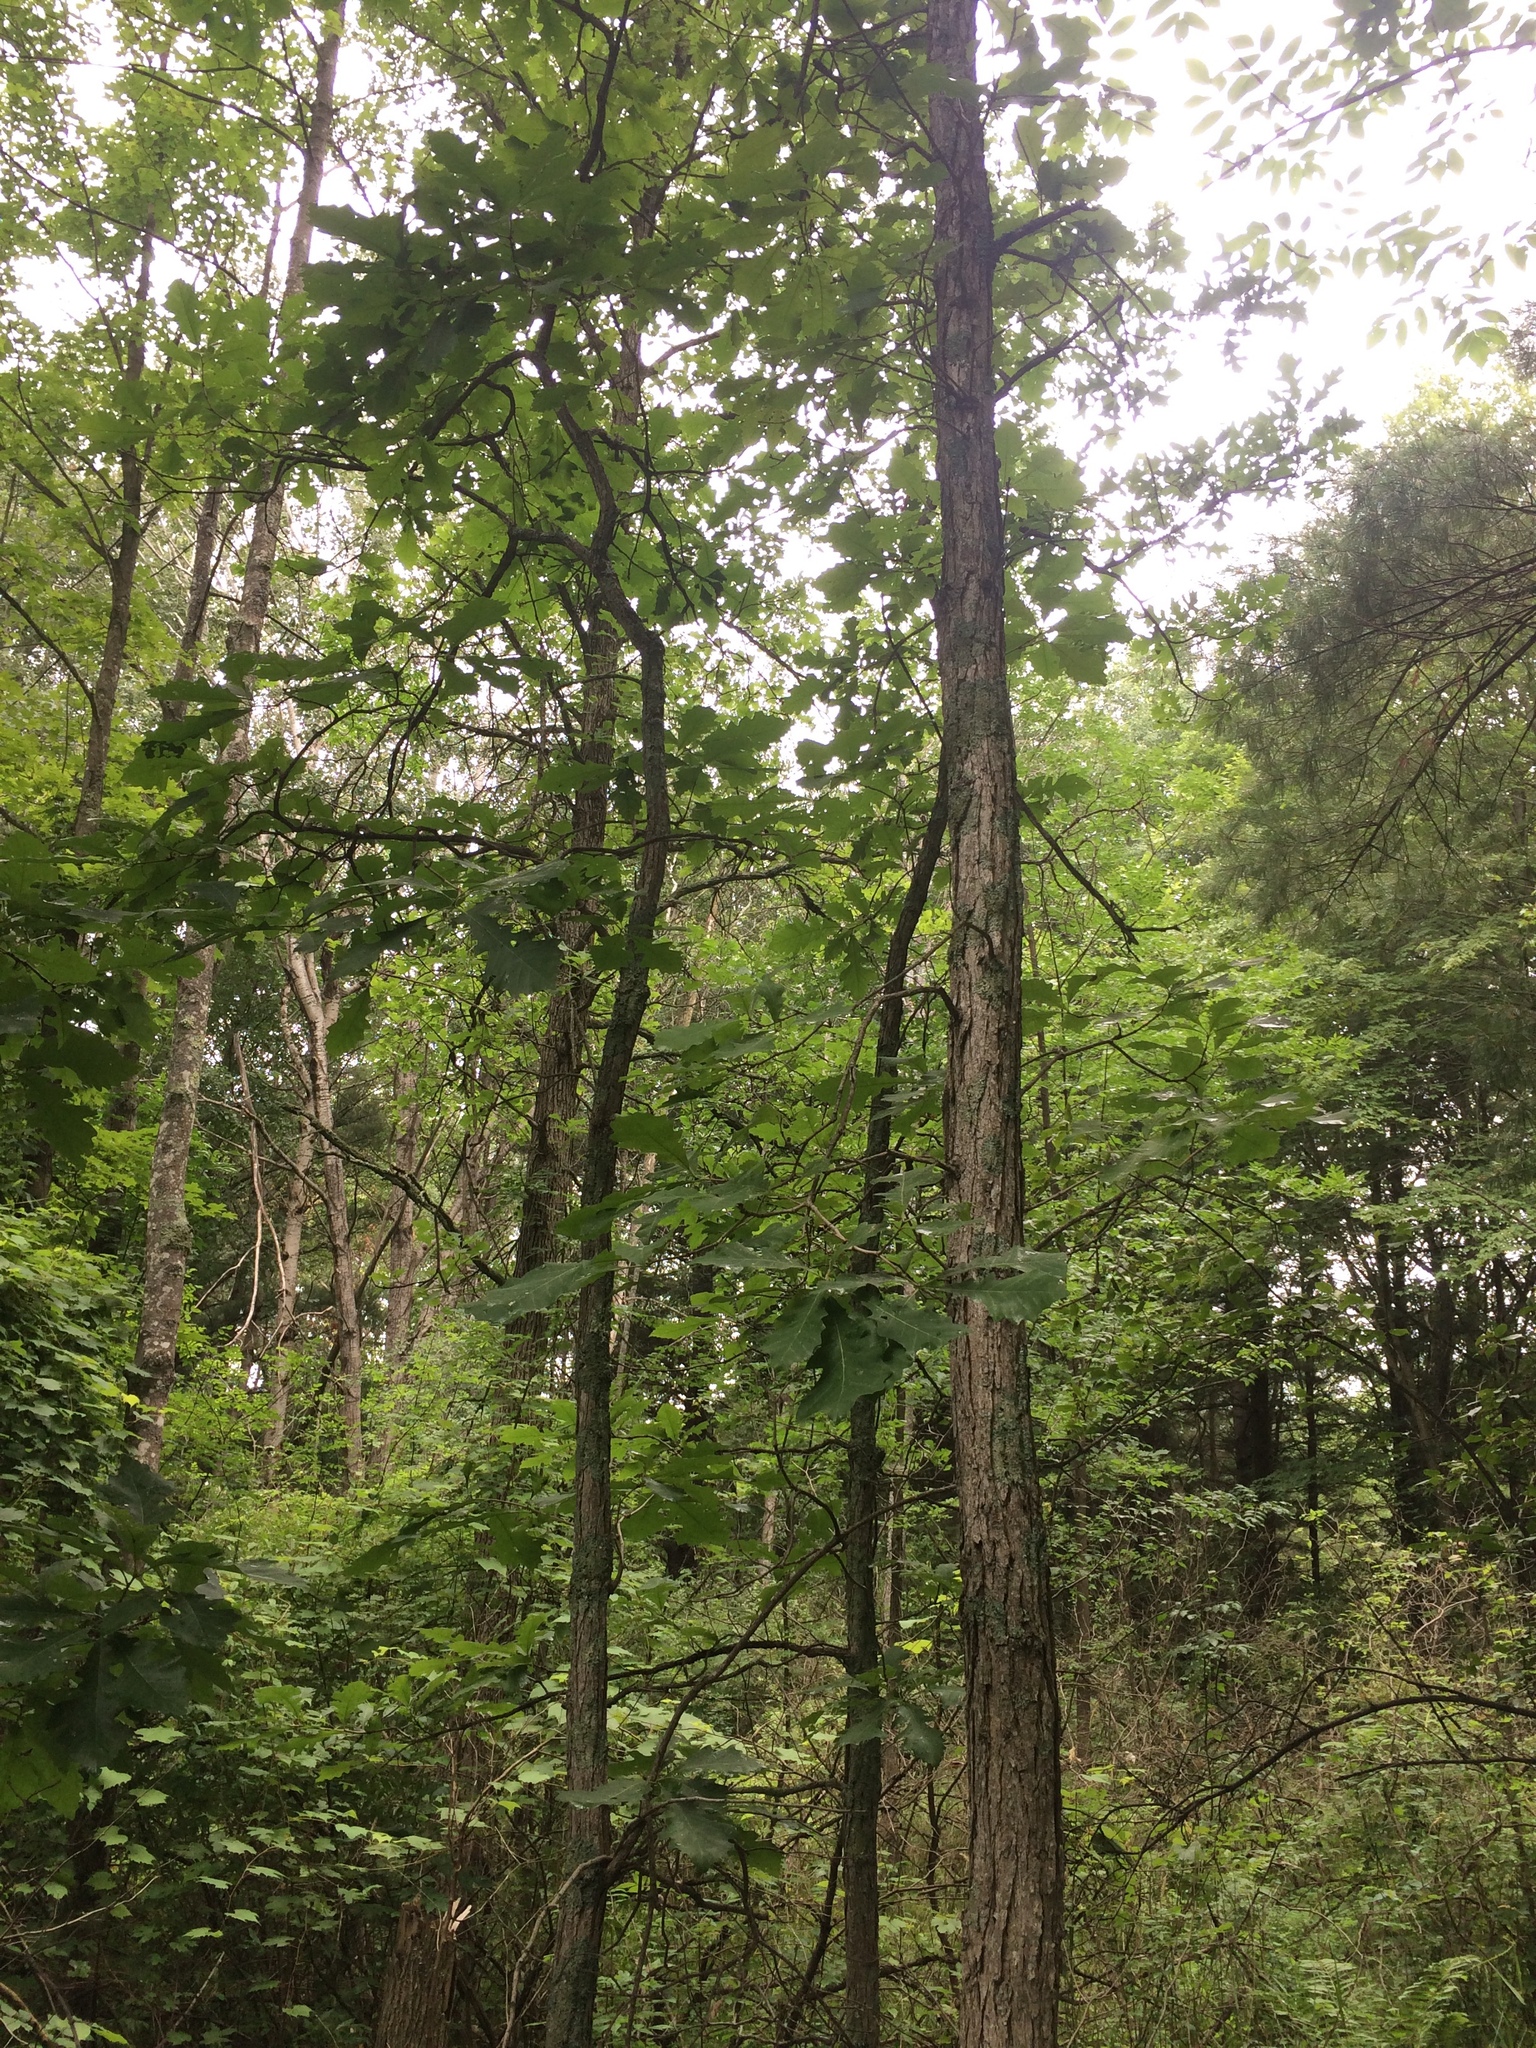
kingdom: Plantae
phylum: Tracheophyta
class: Magnoliopsida
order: Fagales
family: Fagaceae
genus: Quercus
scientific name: Quercus macrocarpa
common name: Bur oak
